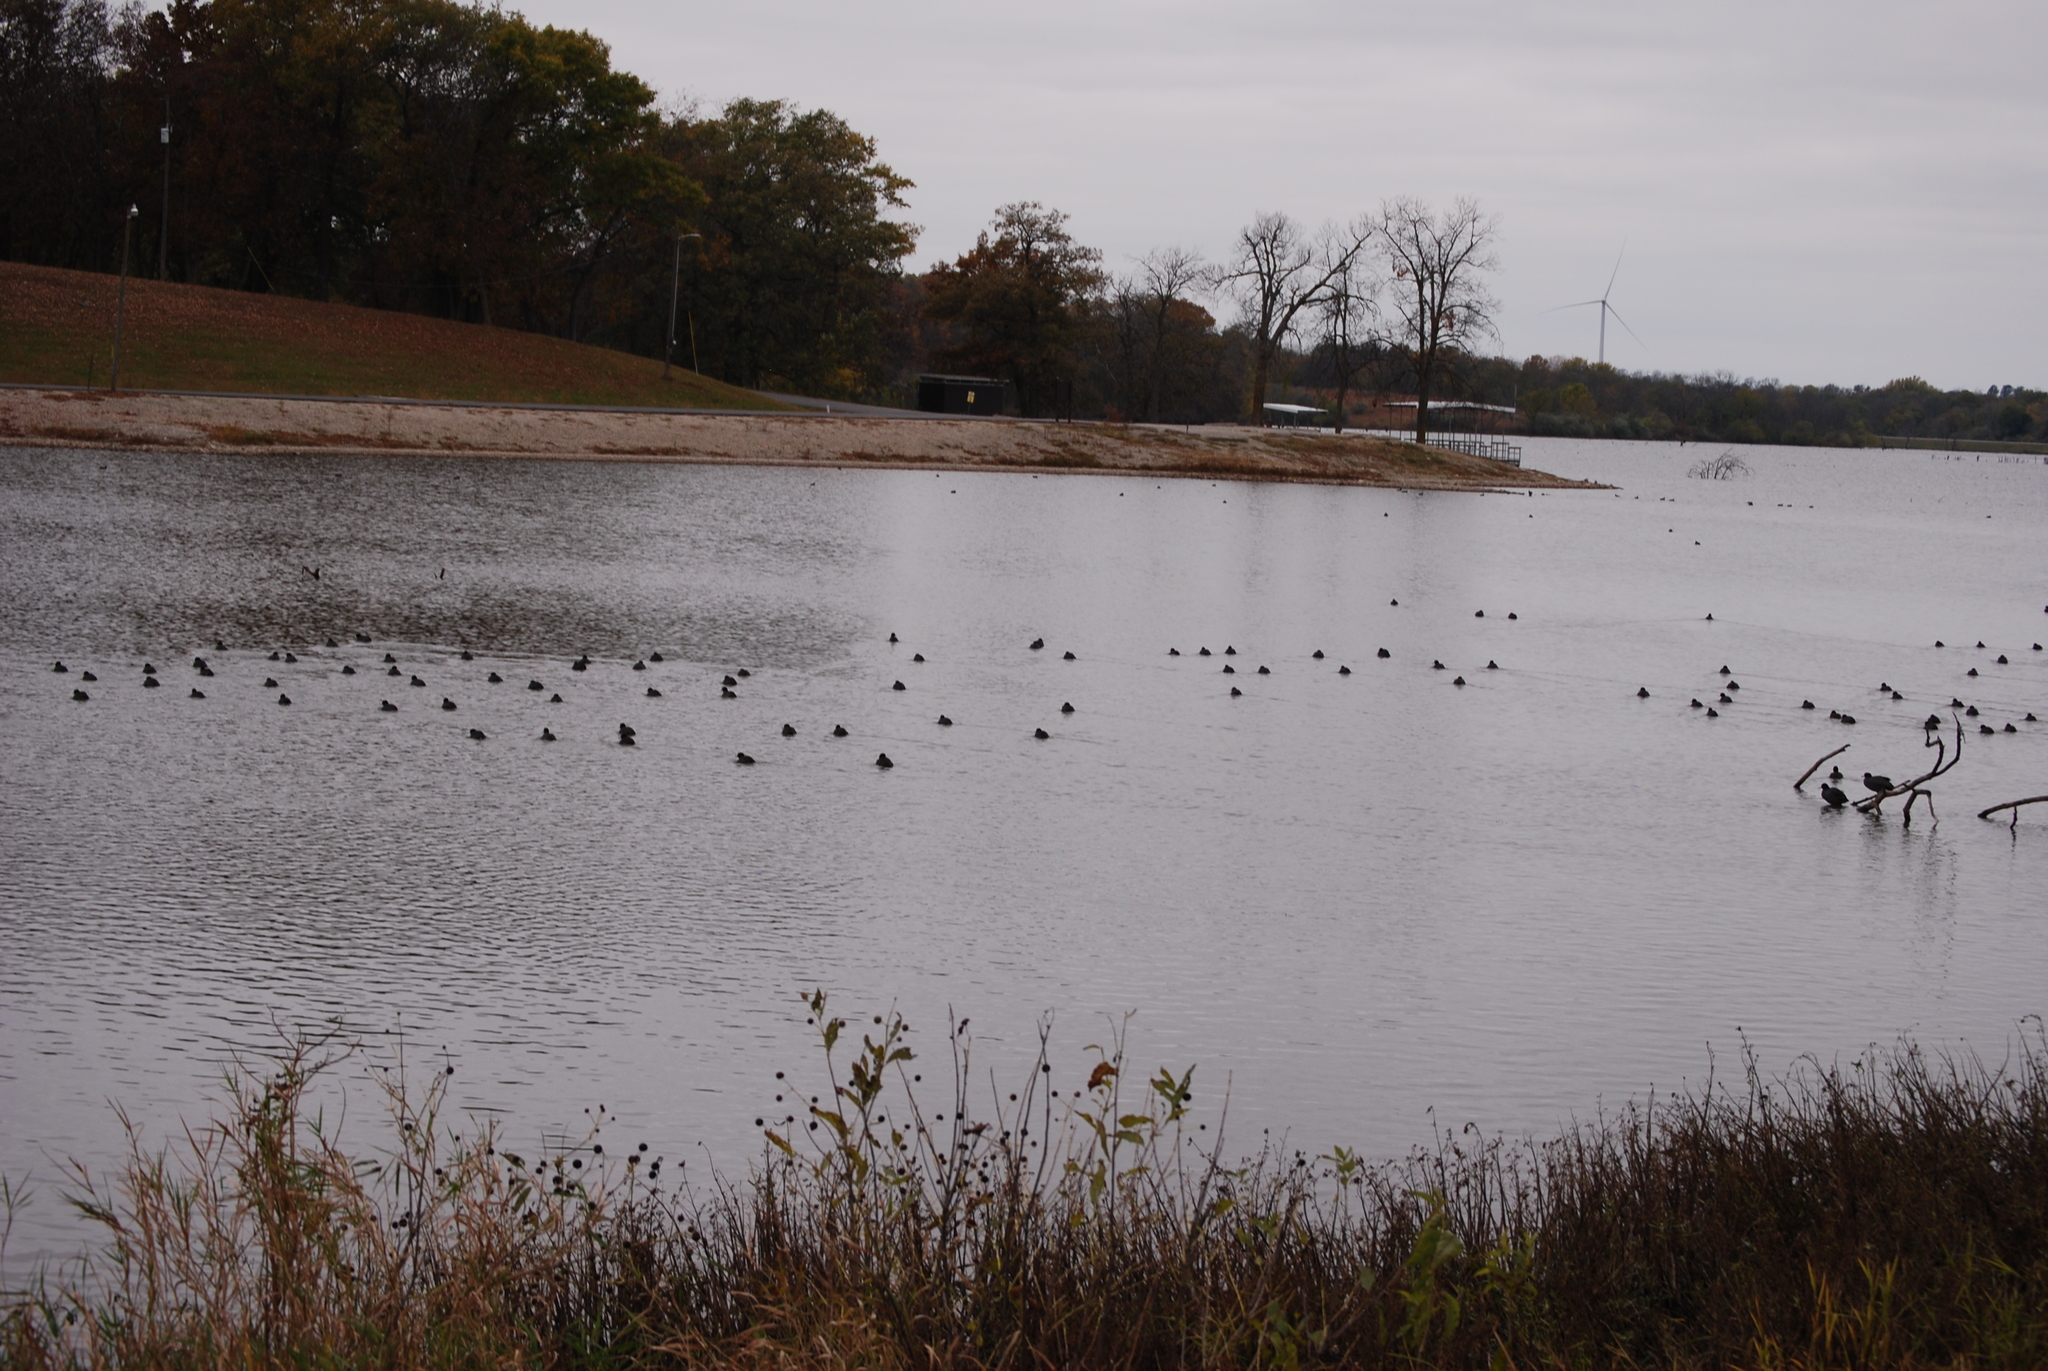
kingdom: Animalia
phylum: Chordata
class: Aves
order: Gruiformes
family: Rallidae
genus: Fulica
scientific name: Fulica americana
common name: American coot
